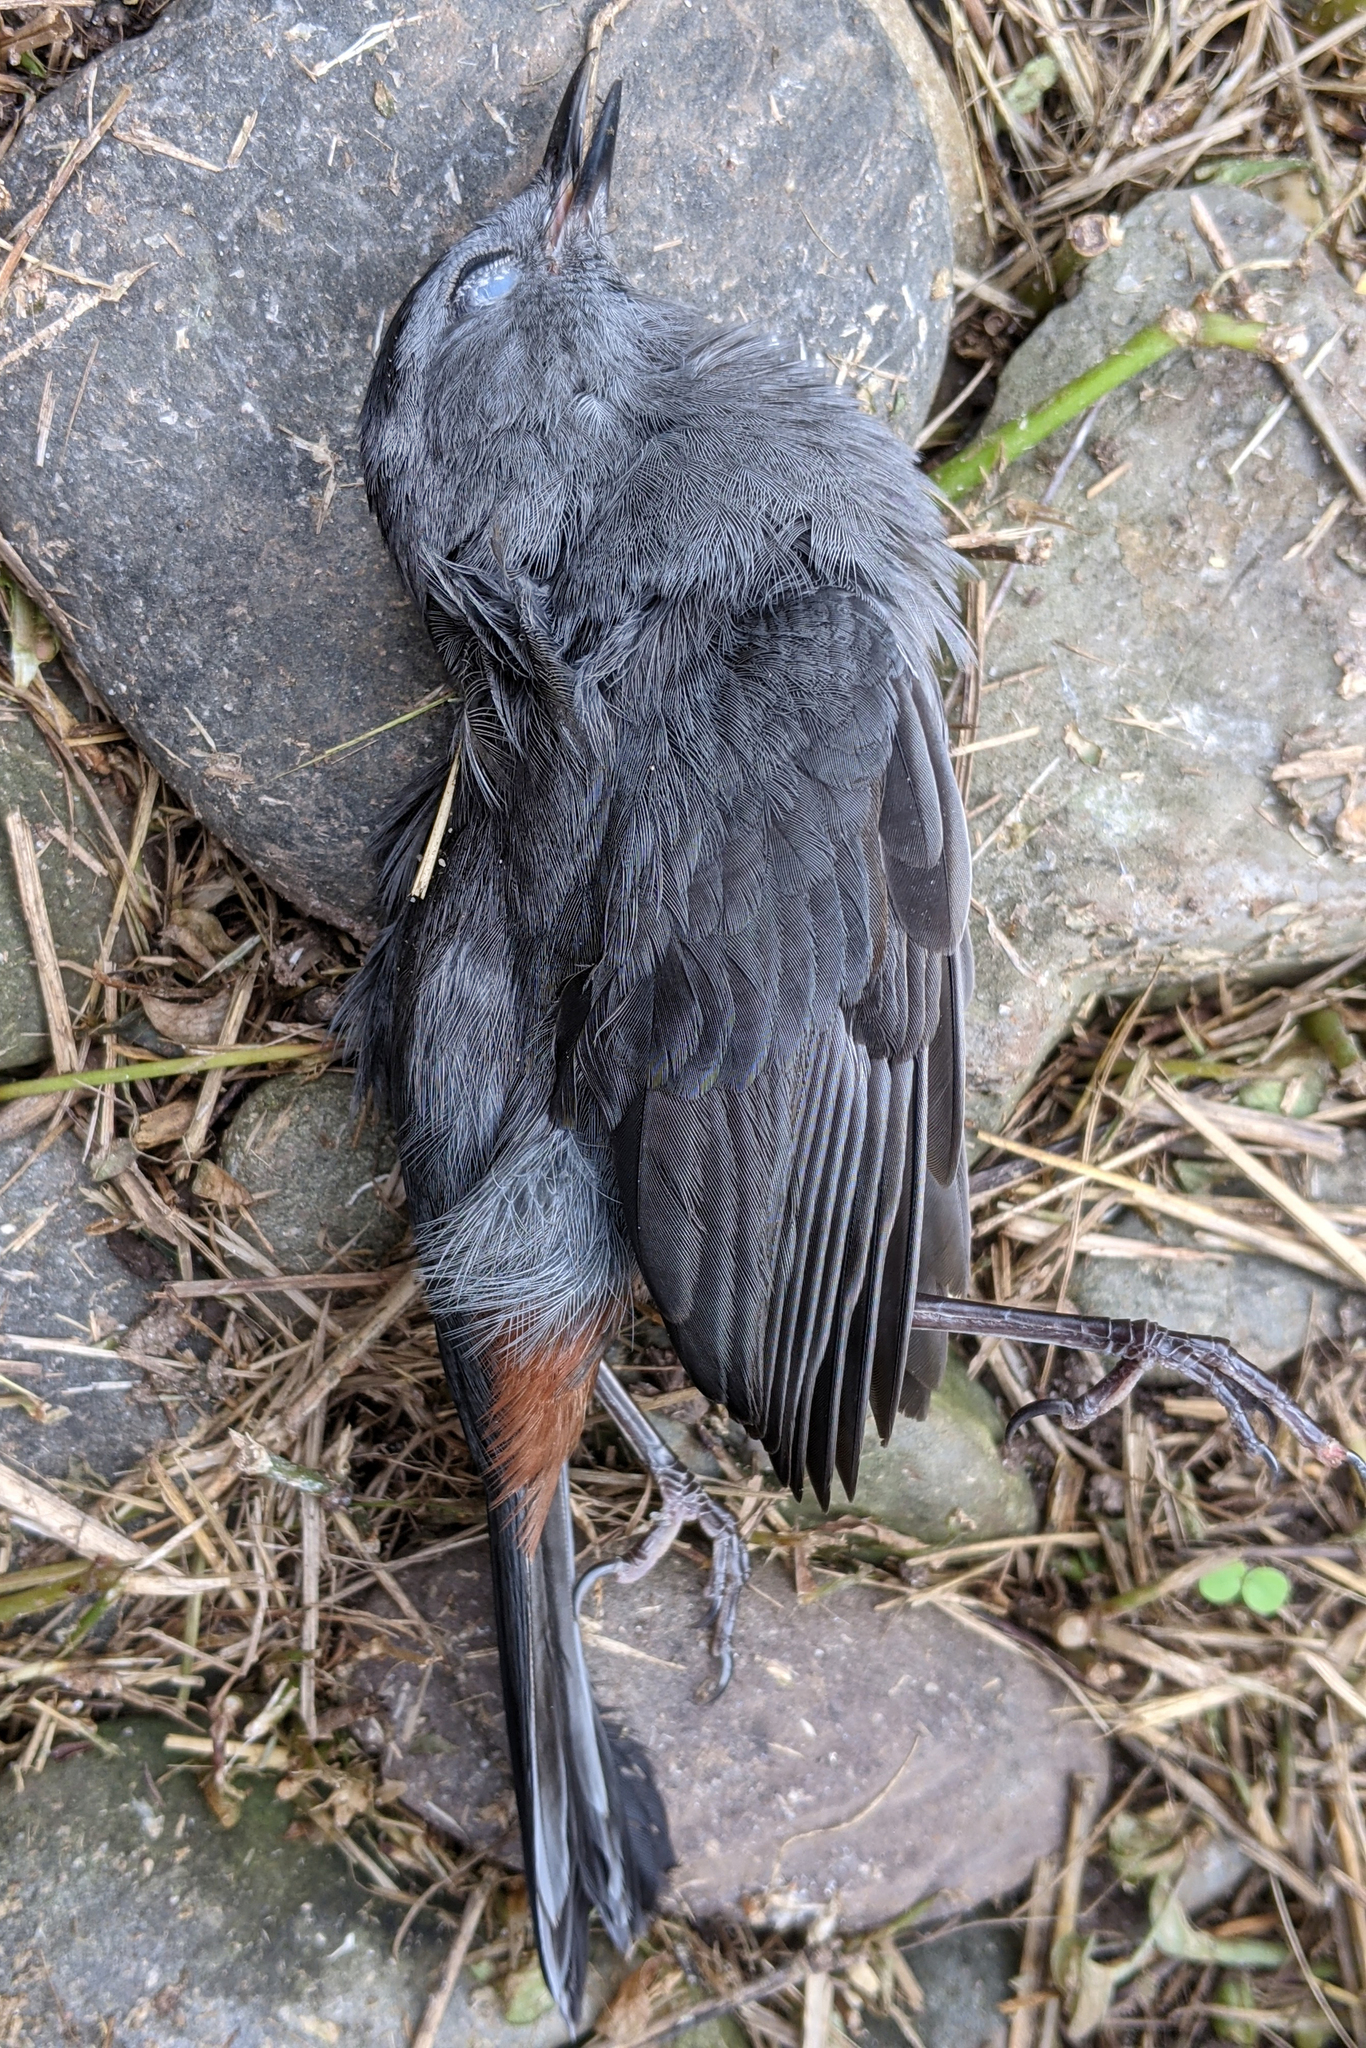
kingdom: Animalia
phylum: Chordata
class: Aves
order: Passeriformes
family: Mimidae
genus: Dumetella
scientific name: Dumetella carolinensis
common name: Gray catbird
